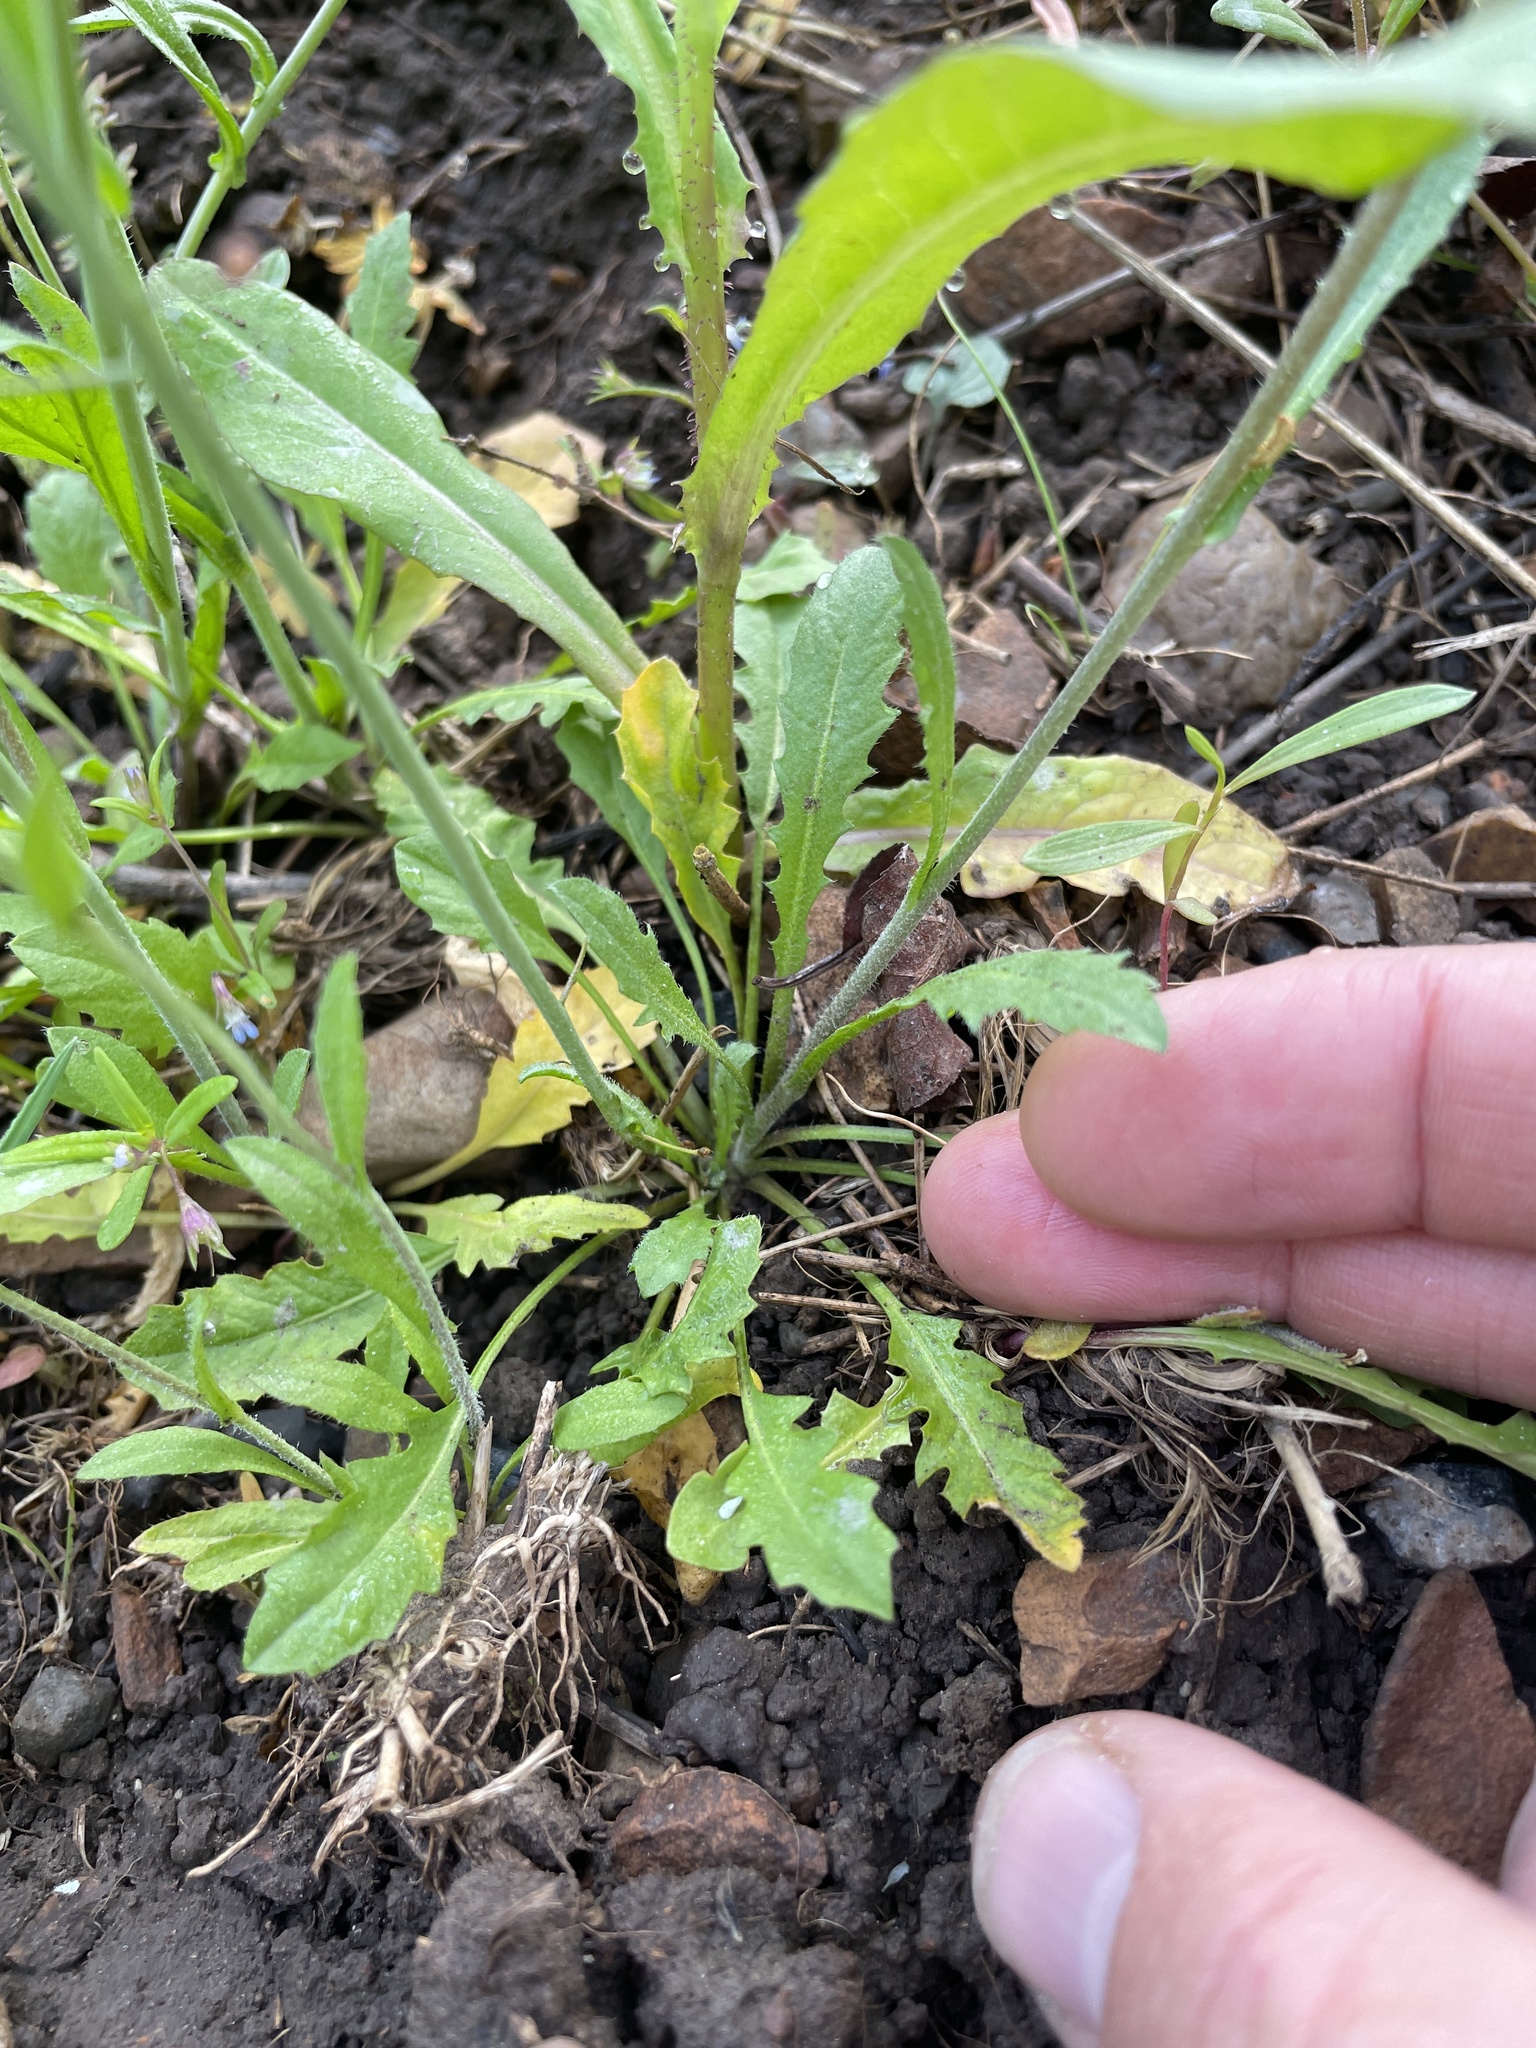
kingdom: Plantae
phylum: Tracheophyta
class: Magnoliopsida
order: Brassicales
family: Brassicaceae
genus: Capsella
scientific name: Capsella bursa-pastoris
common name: Shepherd's purse
